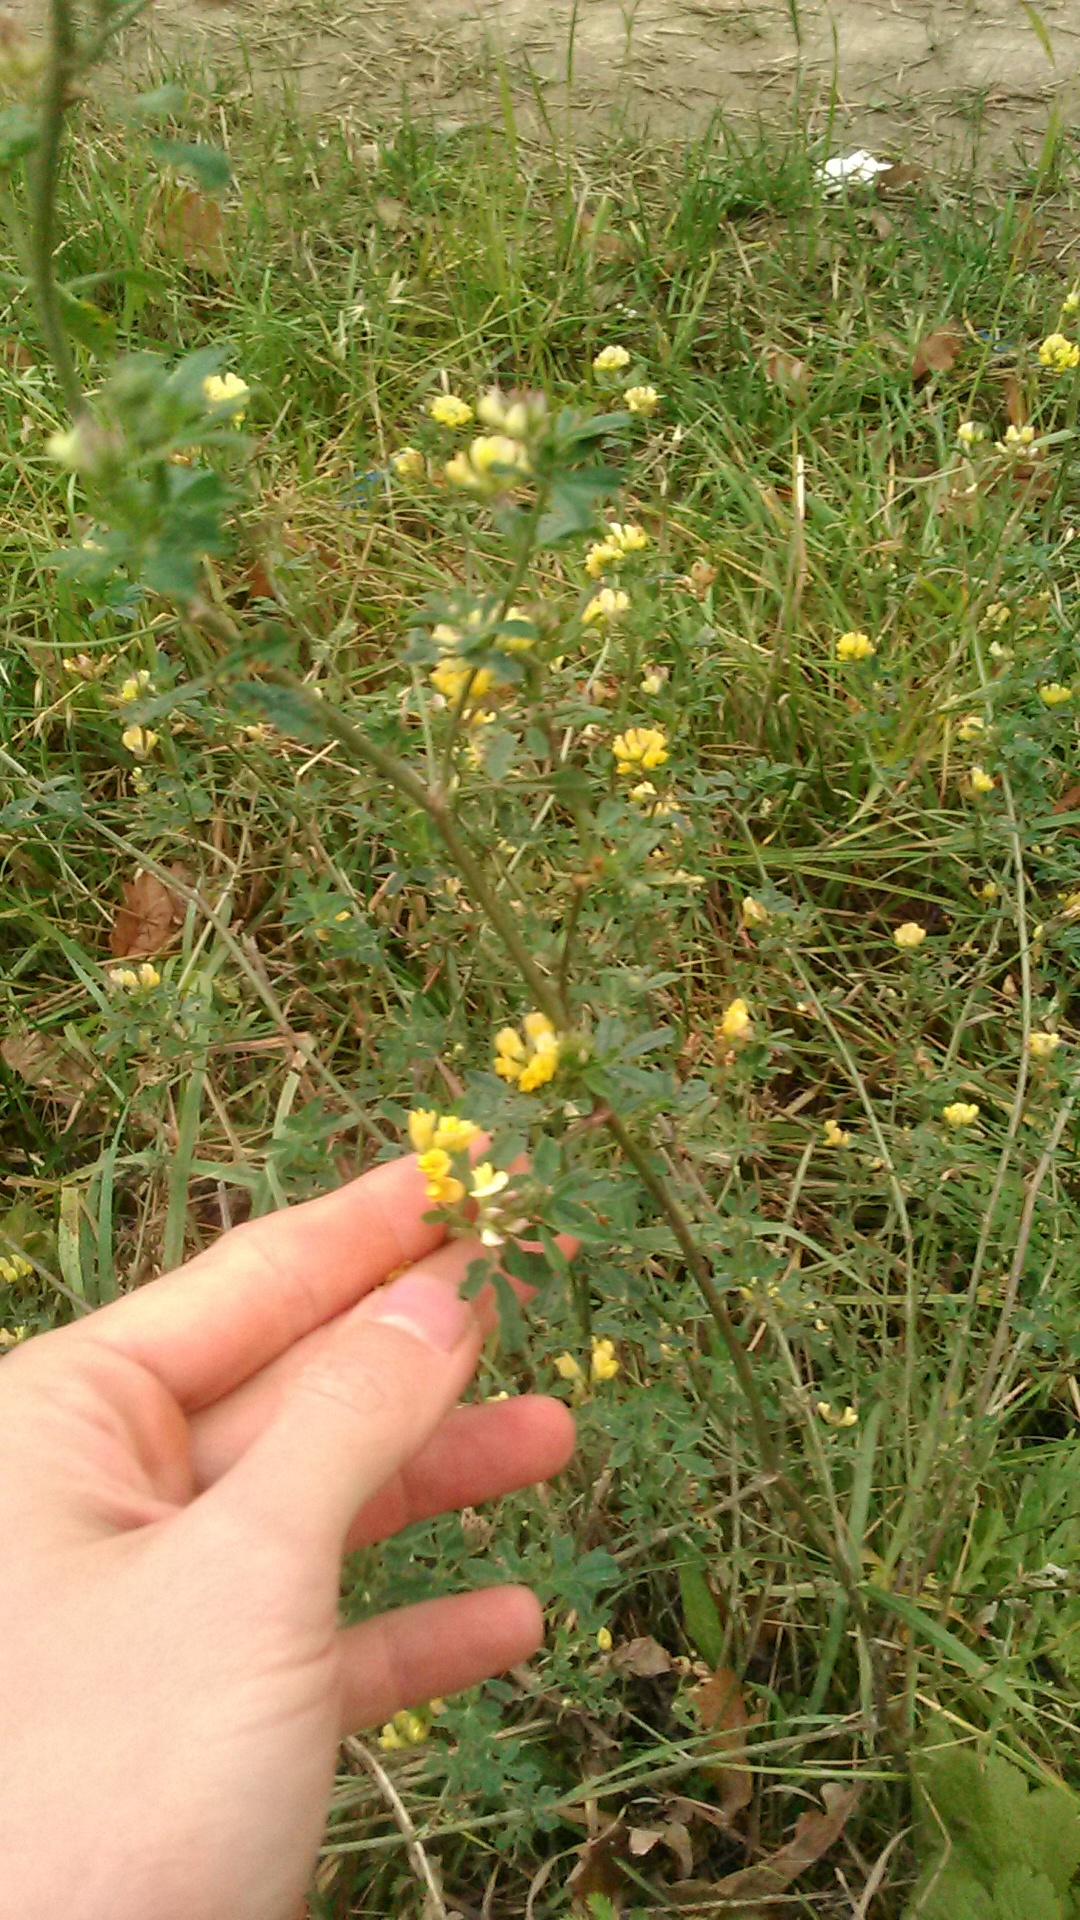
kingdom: Plantae
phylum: Tracheophyta
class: Magnoliopsida
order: Fabales
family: Fabaceae
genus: Medicago
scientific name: Medicago falcata
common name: Sickle medick
